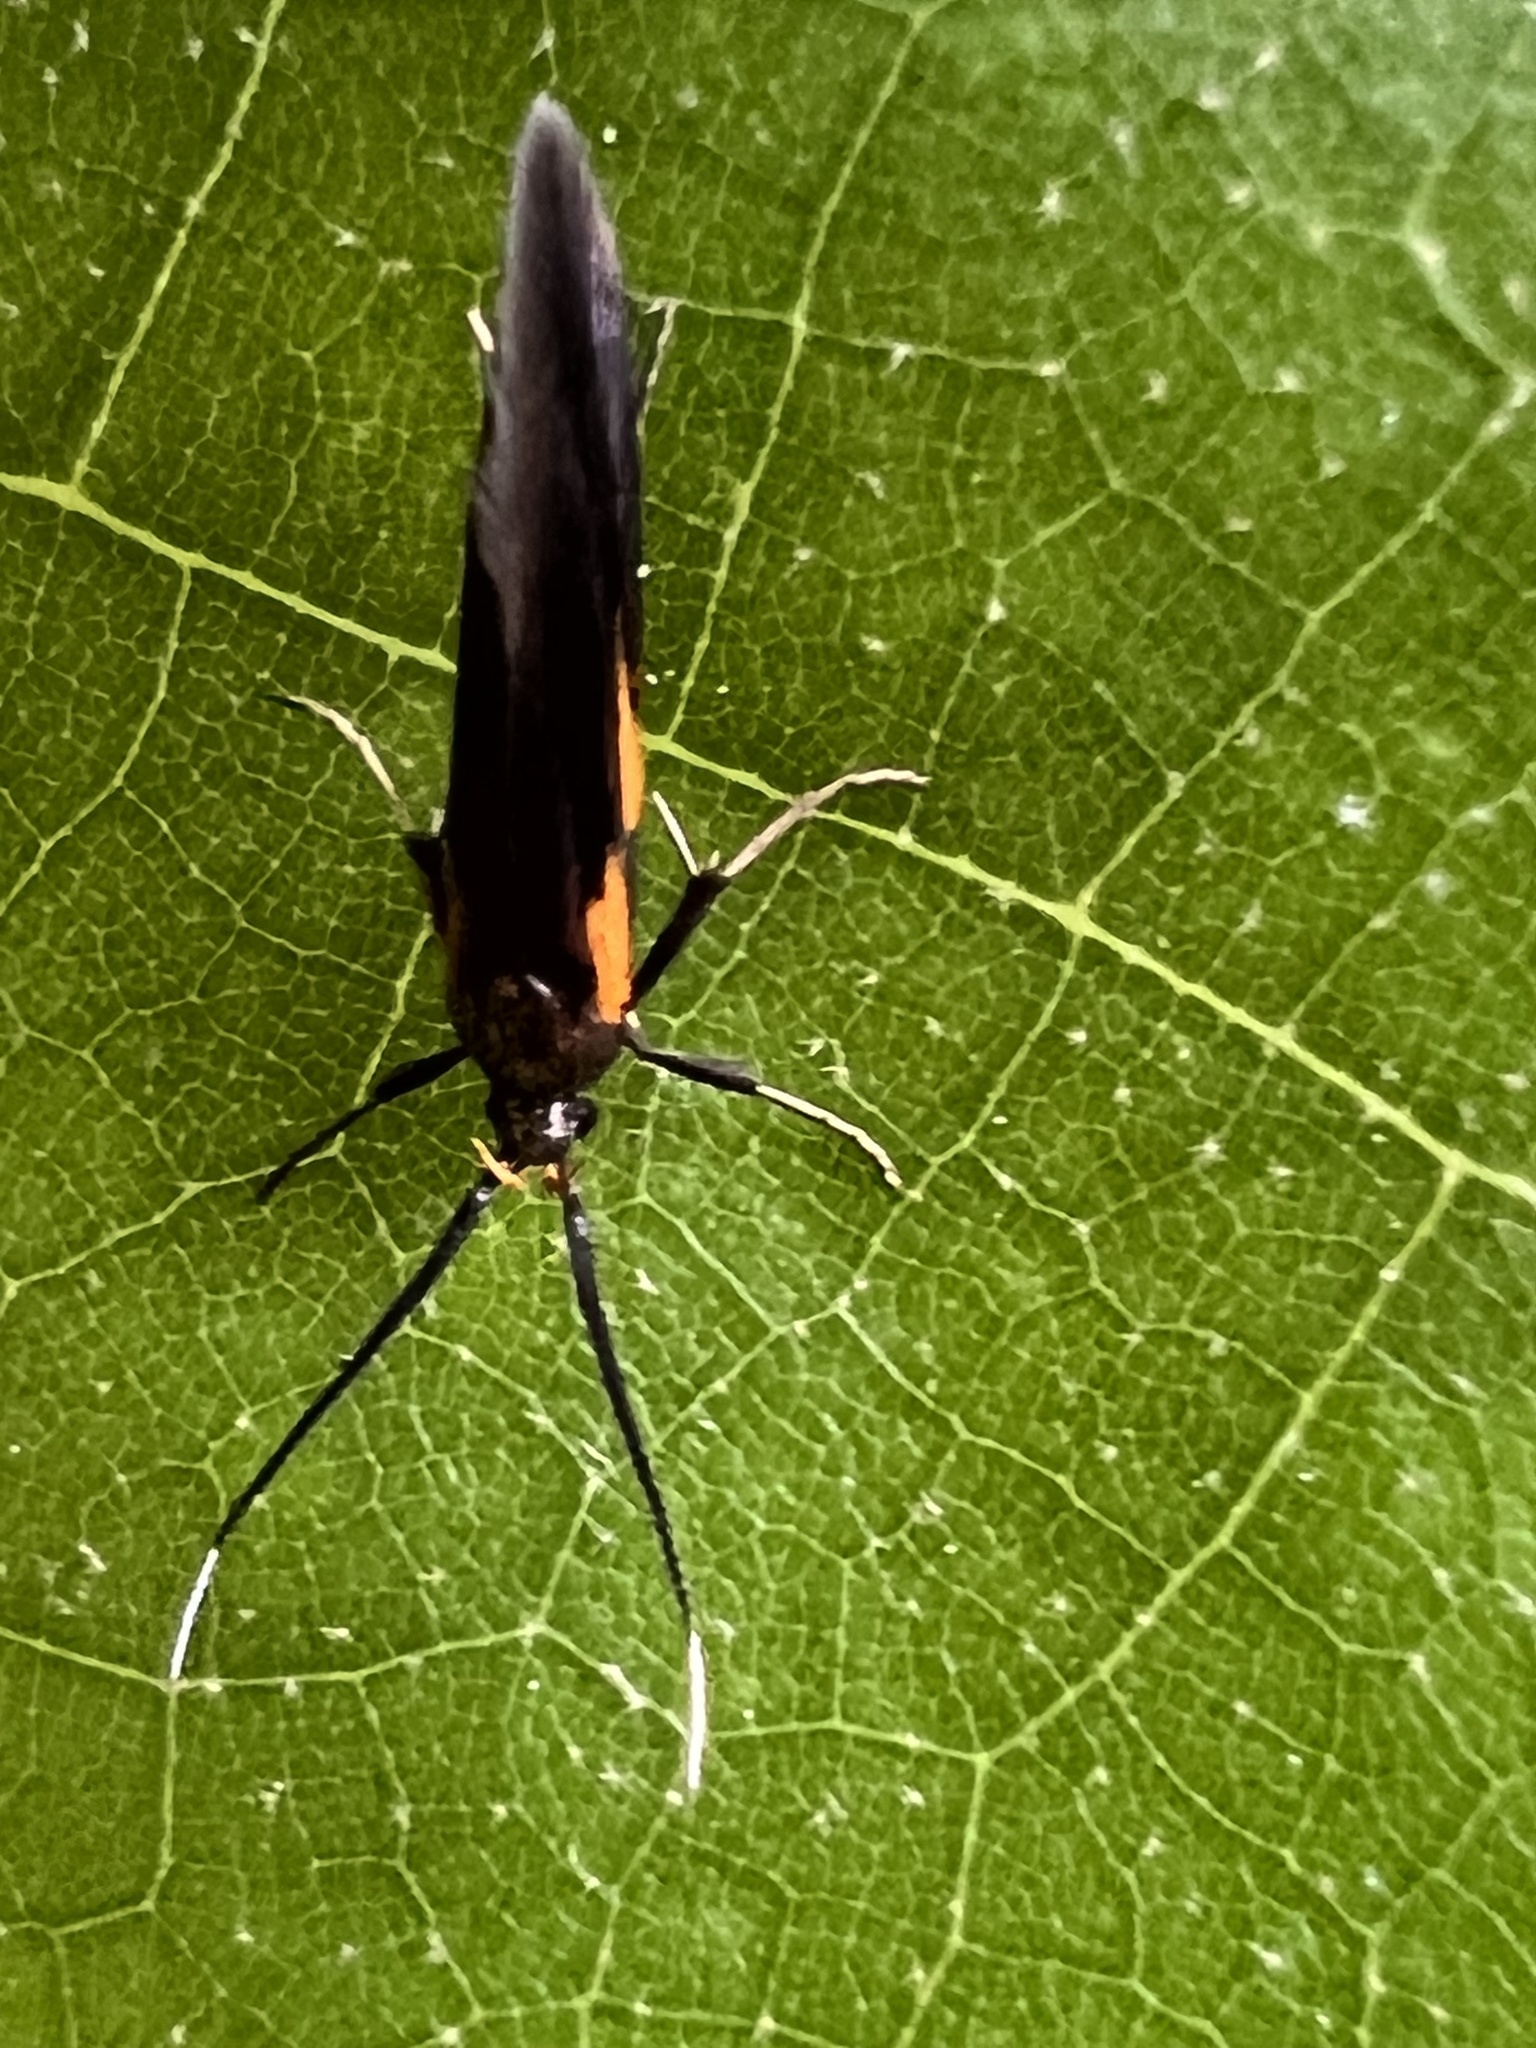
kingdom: Animalia
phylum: Arthropoda
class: Insecta
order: Lepidoptera
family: Oecophoridae
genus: Mathildana
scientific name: Mathildana newmanella
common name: Newman's mathildana moth
